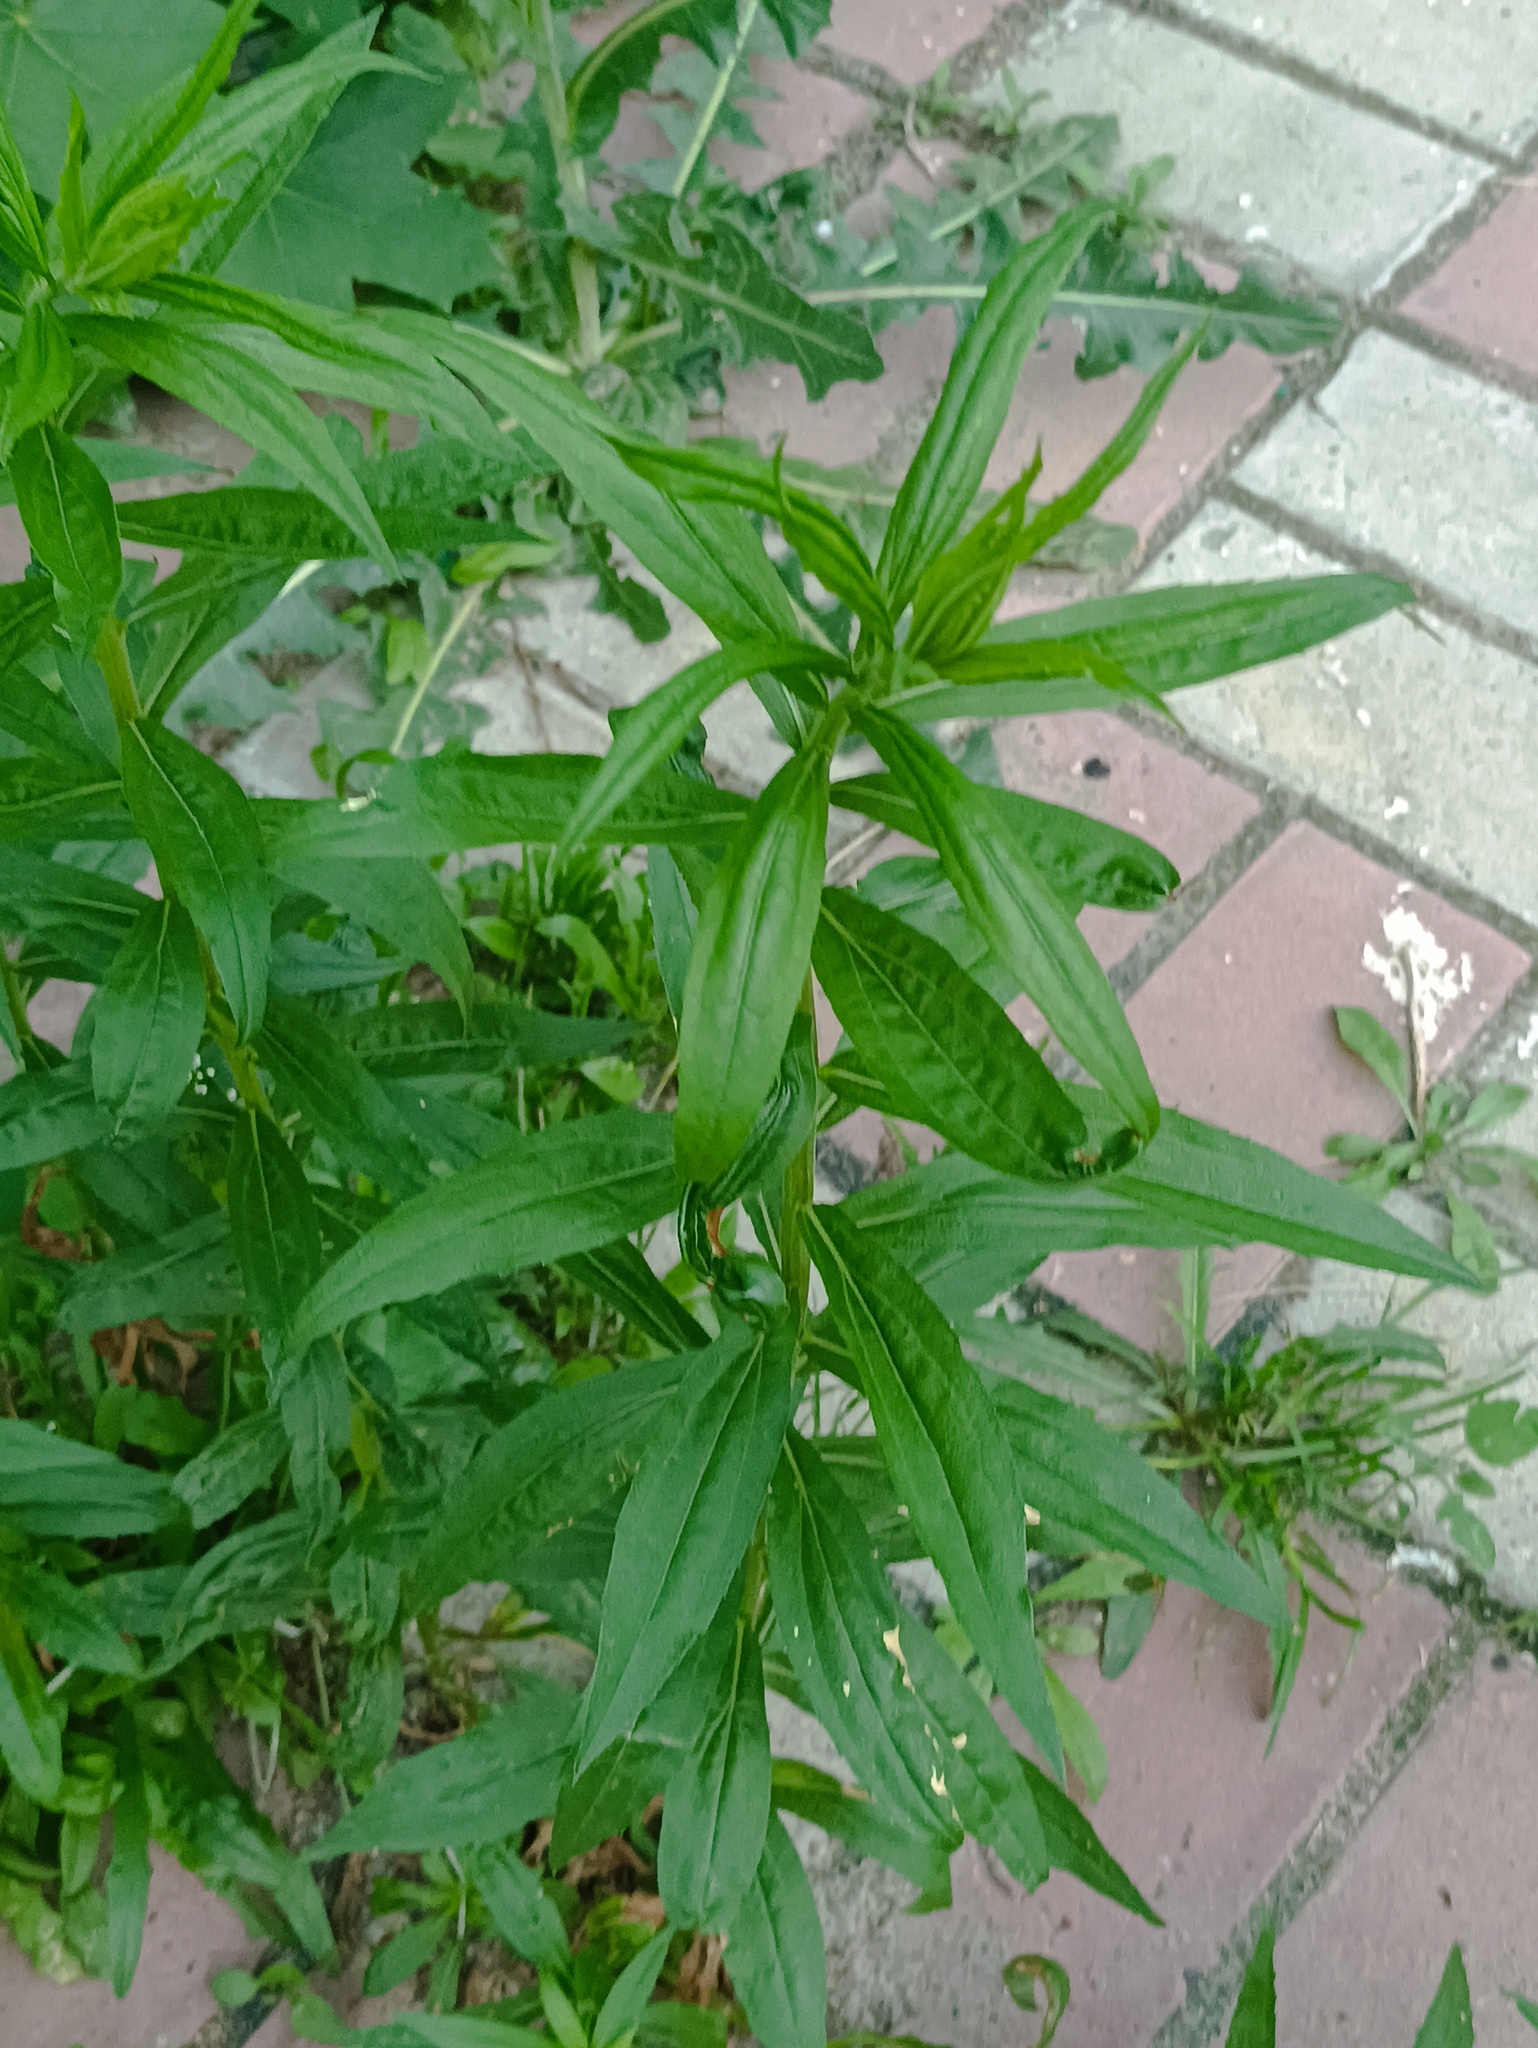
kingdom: Plantae
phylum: Tracheophyta
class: Magnoliopsida
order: Asterales
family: Asteraceae
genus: Solidago
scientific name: Solidago canadensis
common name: Canada goldenrod
